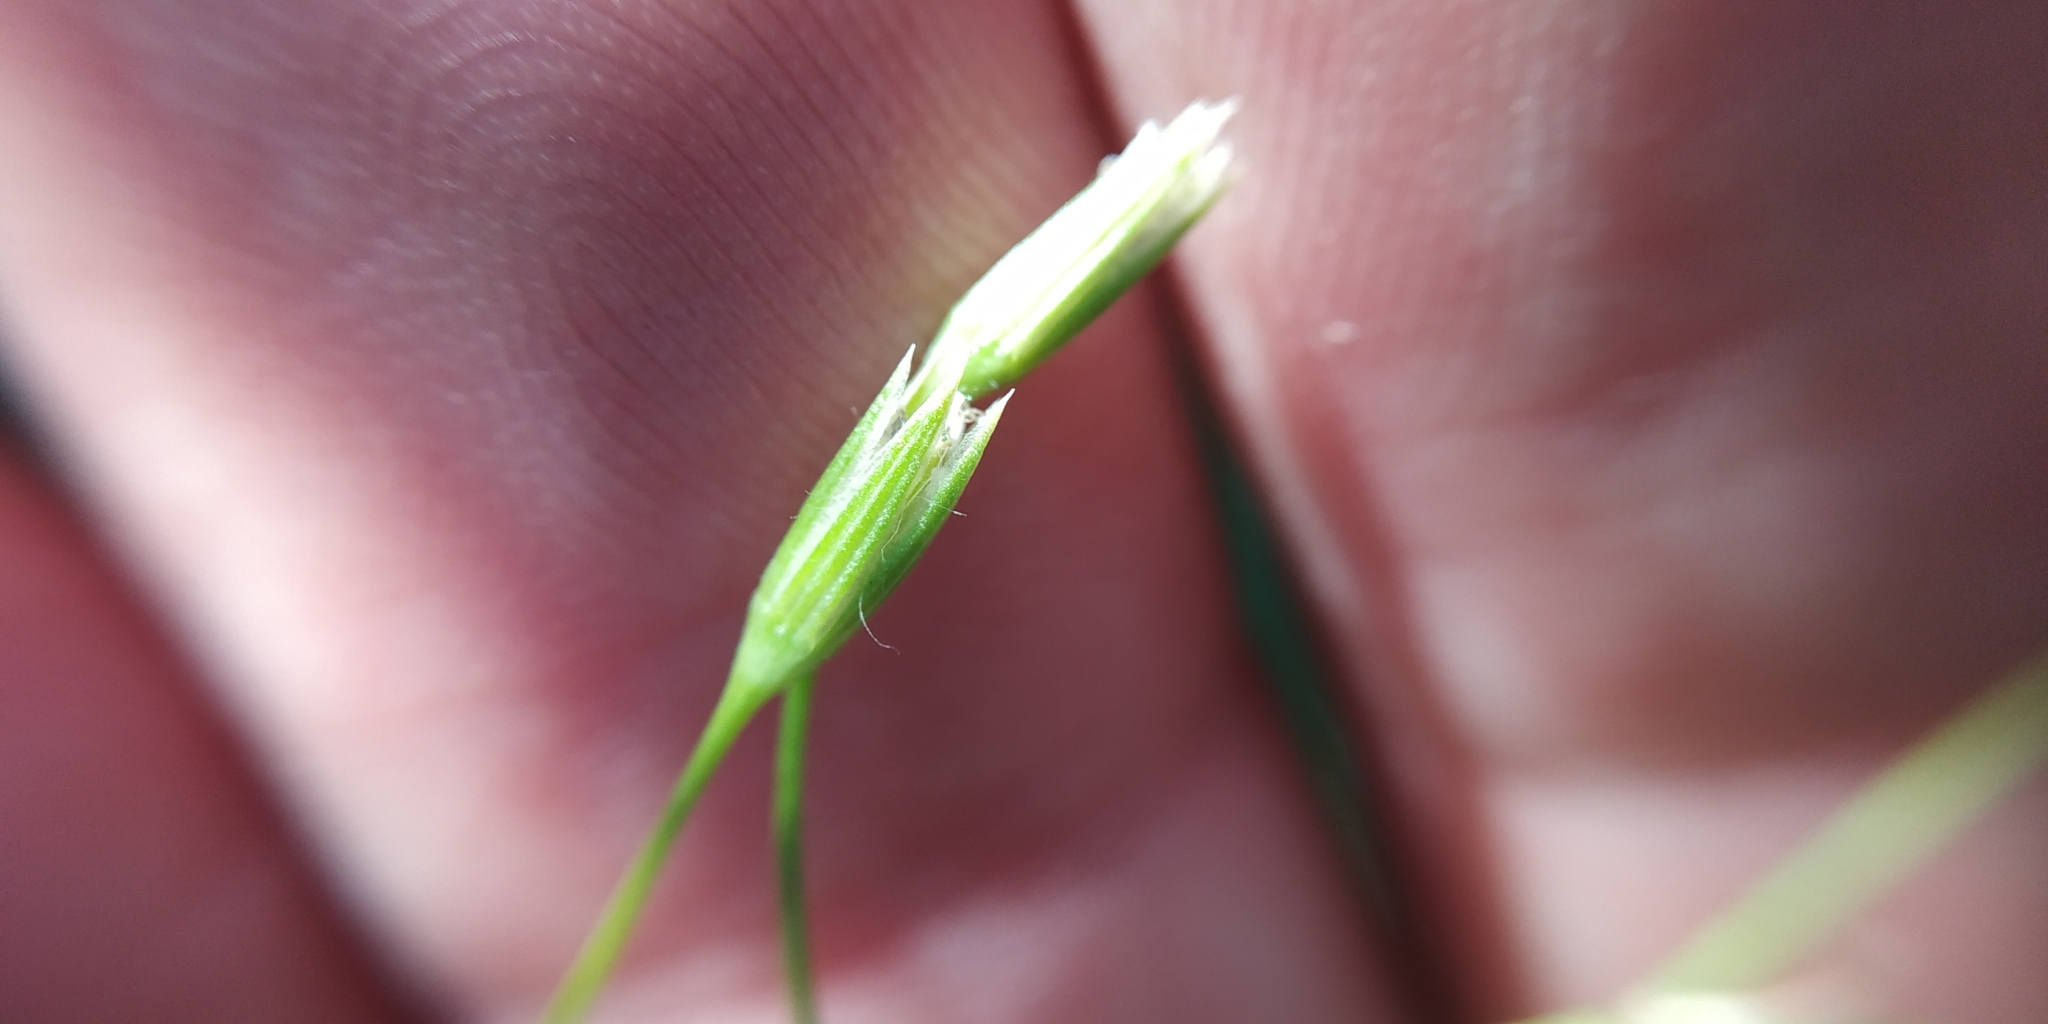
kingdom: Plantae
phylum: Tracheophyta
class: Magnoliopsida
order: Caryophyllales
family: Caryophyllaceae
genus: Stellaria
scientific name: Stellaria graminea
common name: Grass-like starwort
